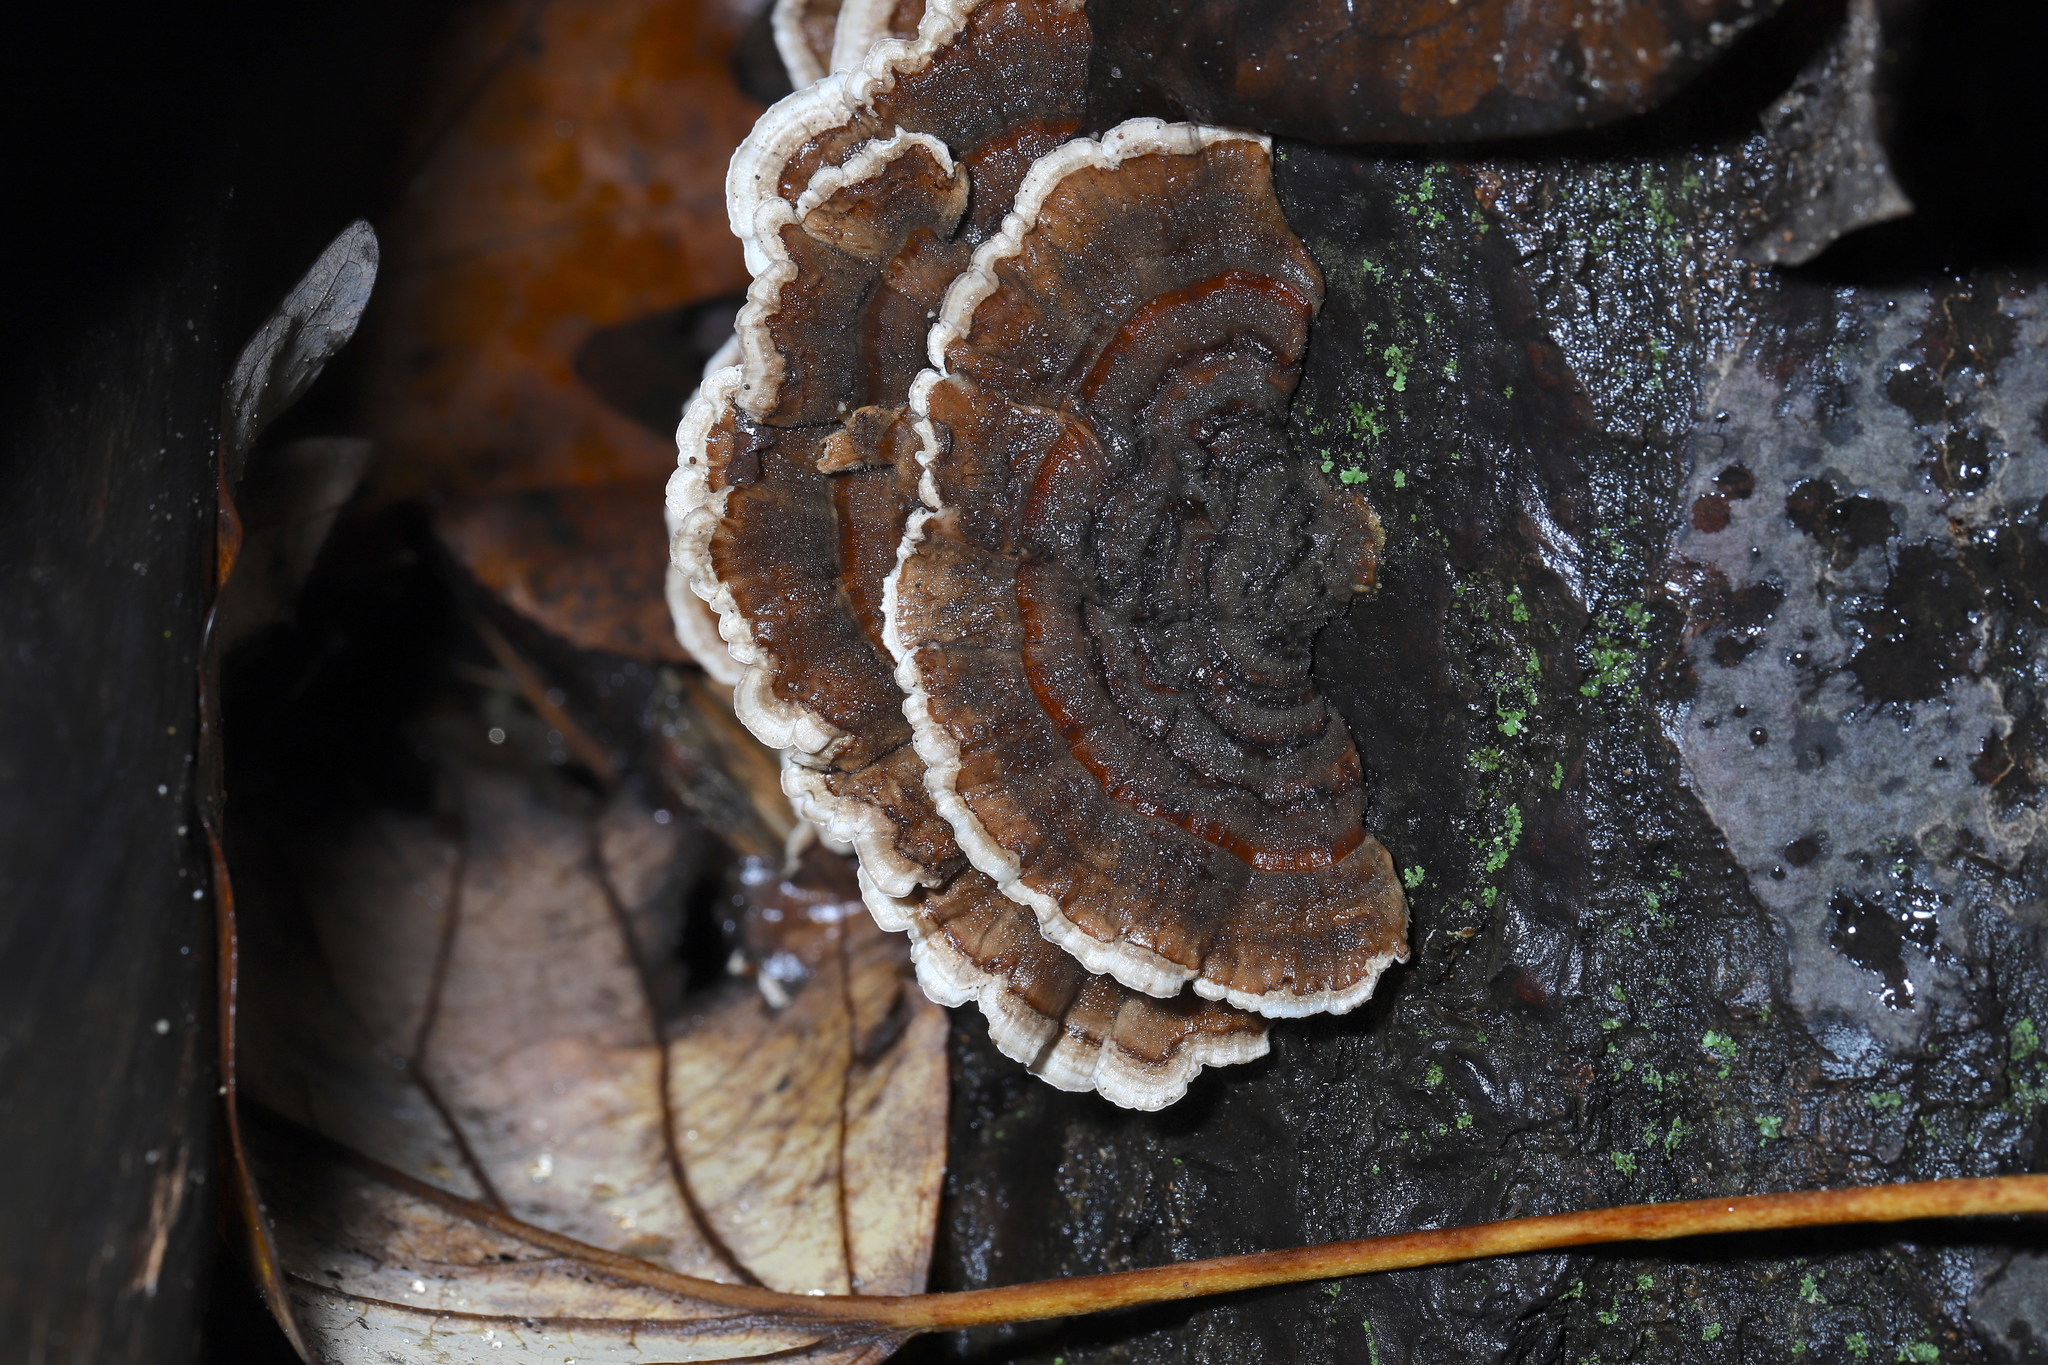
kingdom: Fungi
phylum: Basidiomycota
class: Agaricomycetes
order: Polyporales
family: Polyporaceae
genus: Trametes
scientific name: Trametes versicolor
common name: Turkeytail
